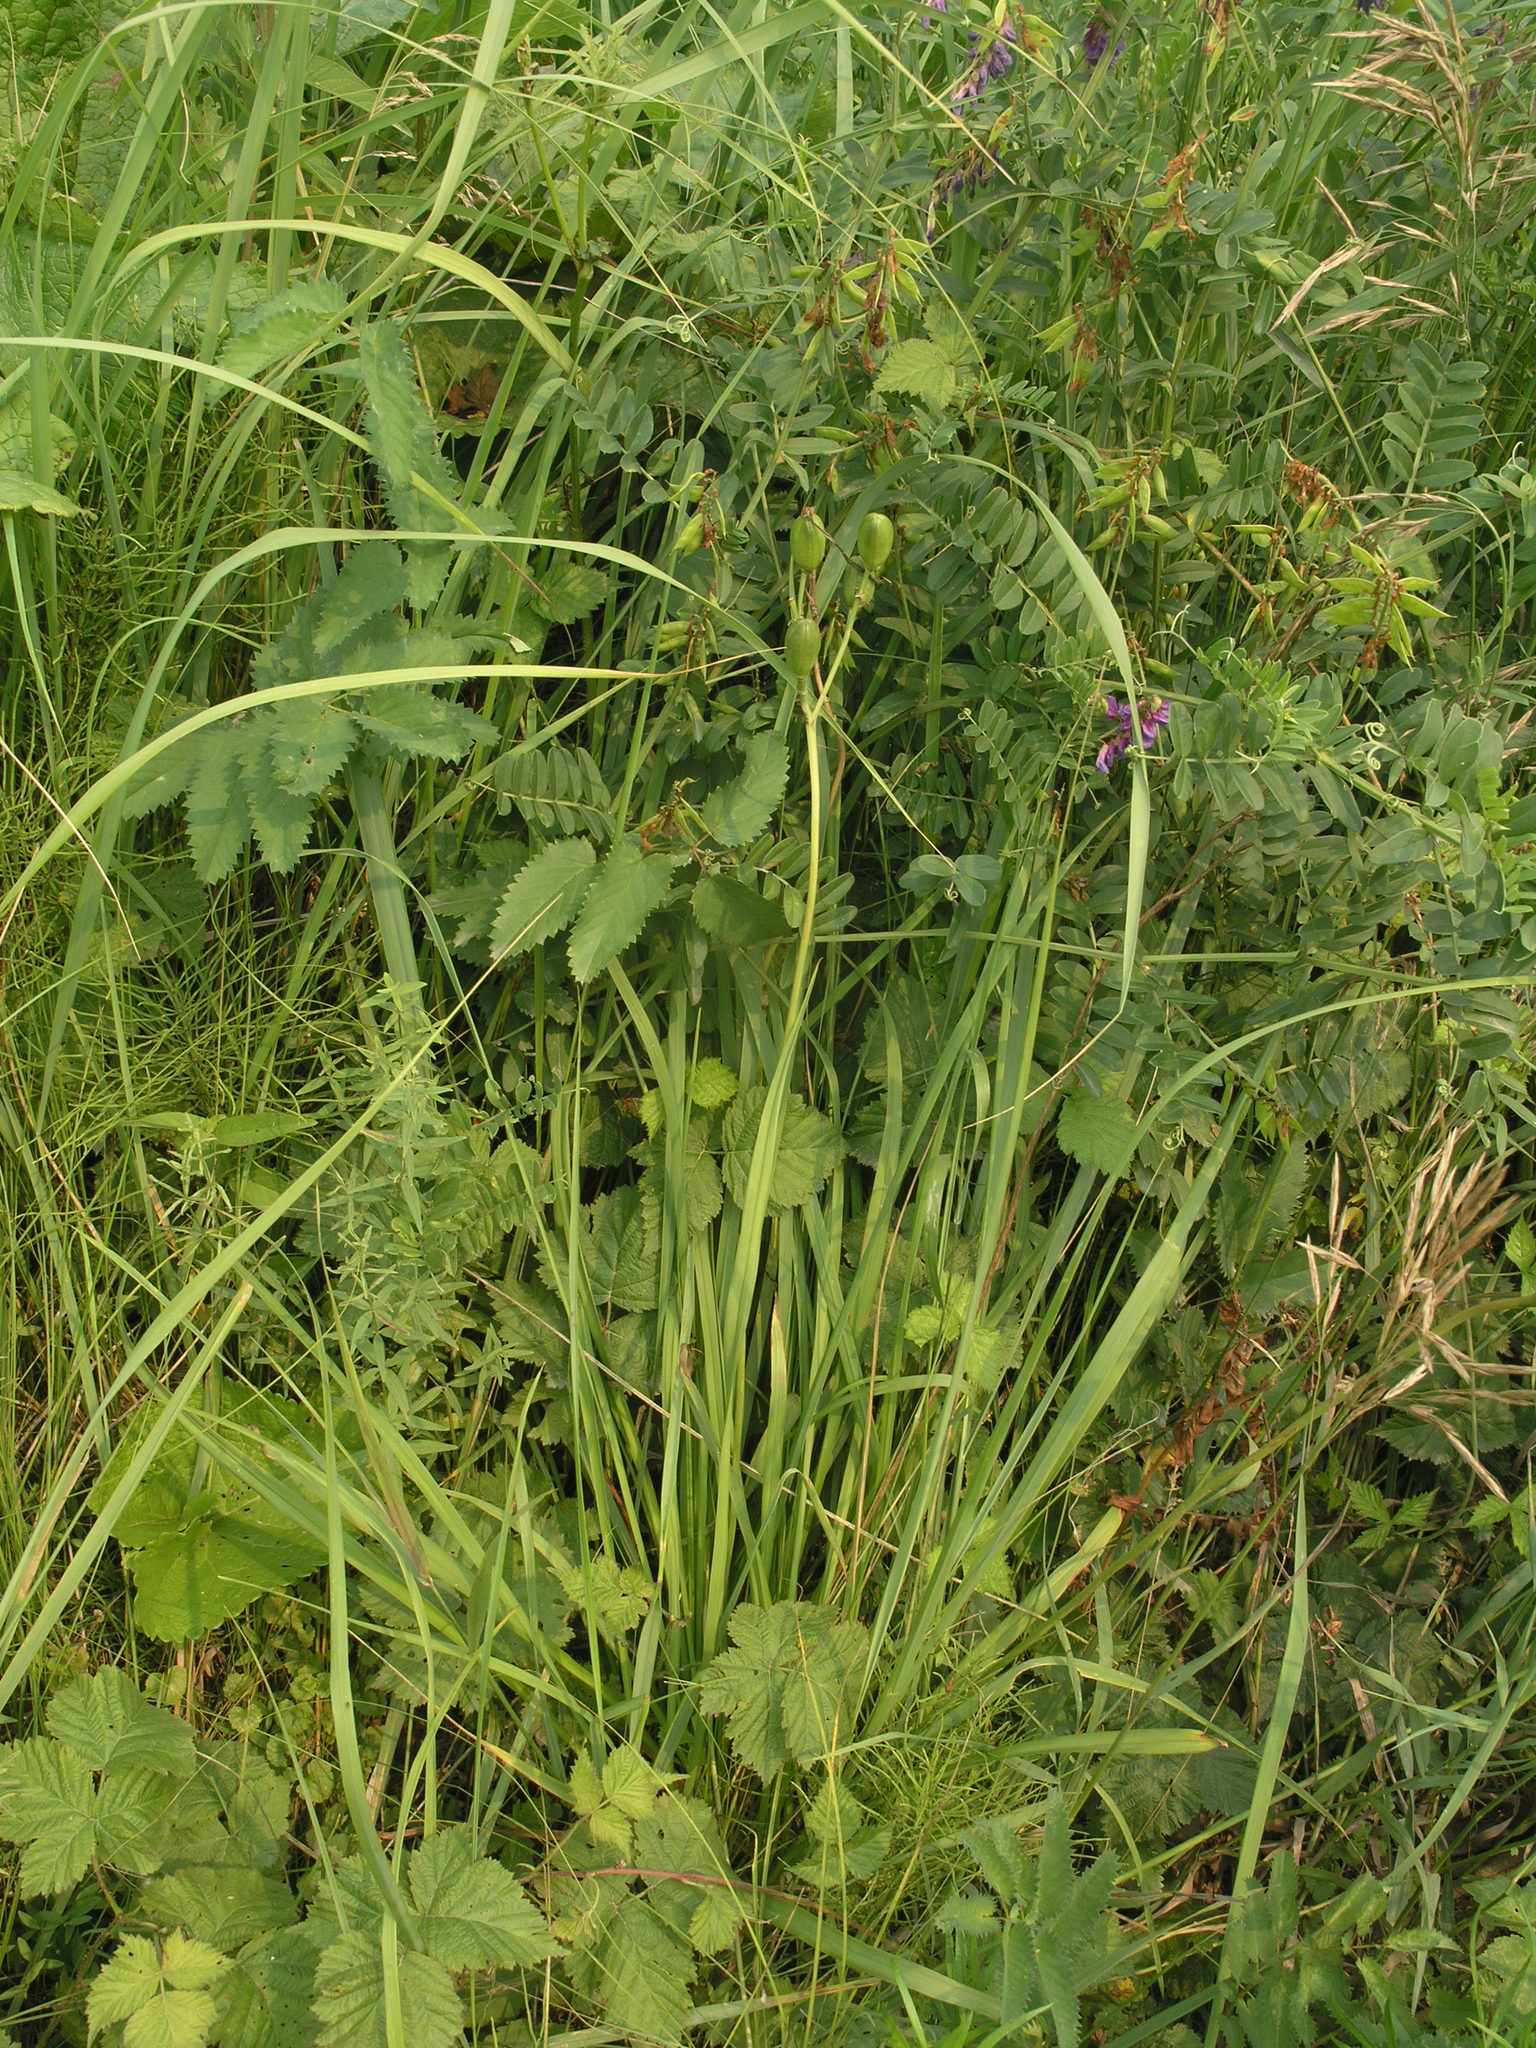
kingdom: Plantae
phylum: Tracheophyta
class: Liliopsida
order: Asparagales
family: Asphodelaceae
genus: Hemerocallis
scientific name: Hemerocallis minor
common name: Small daylily
